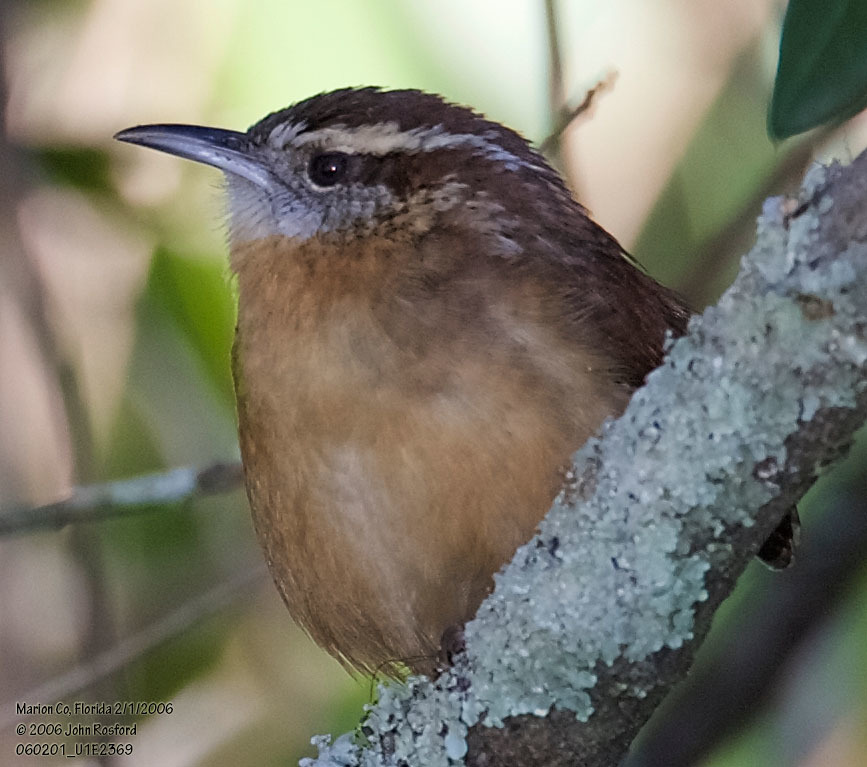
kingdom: Animalia
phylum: Chordata
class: Aves
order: Passeriformes
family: Troglodytidae
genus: Thryothorus
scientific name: Thryothorus ludovicianus
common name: Carolina wren
